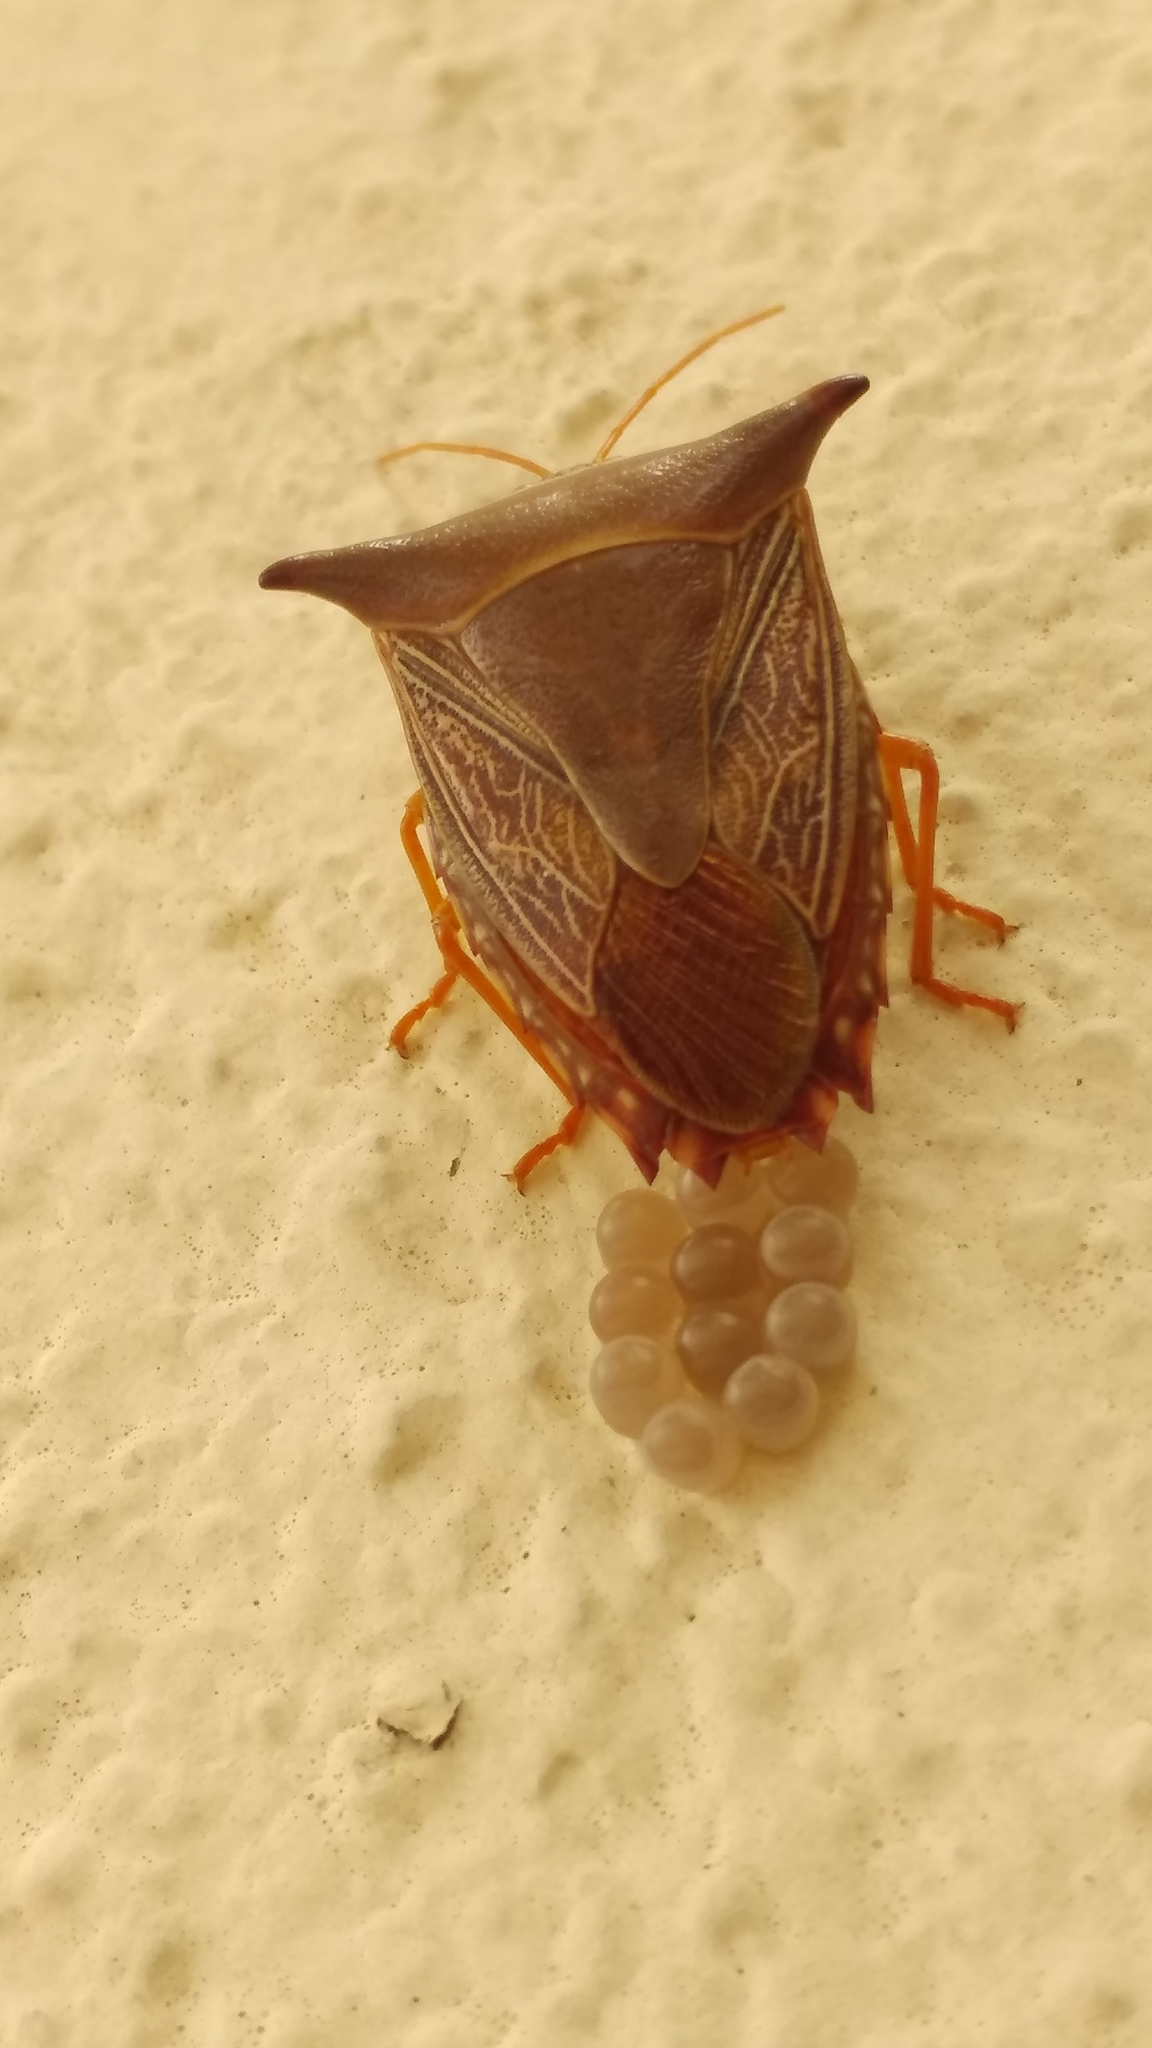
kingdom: Animalia
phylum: Arthropoda
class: Insecta
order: Hemiptera
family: Pentatomidae
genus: Edessa
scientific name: Edessa reticulata
